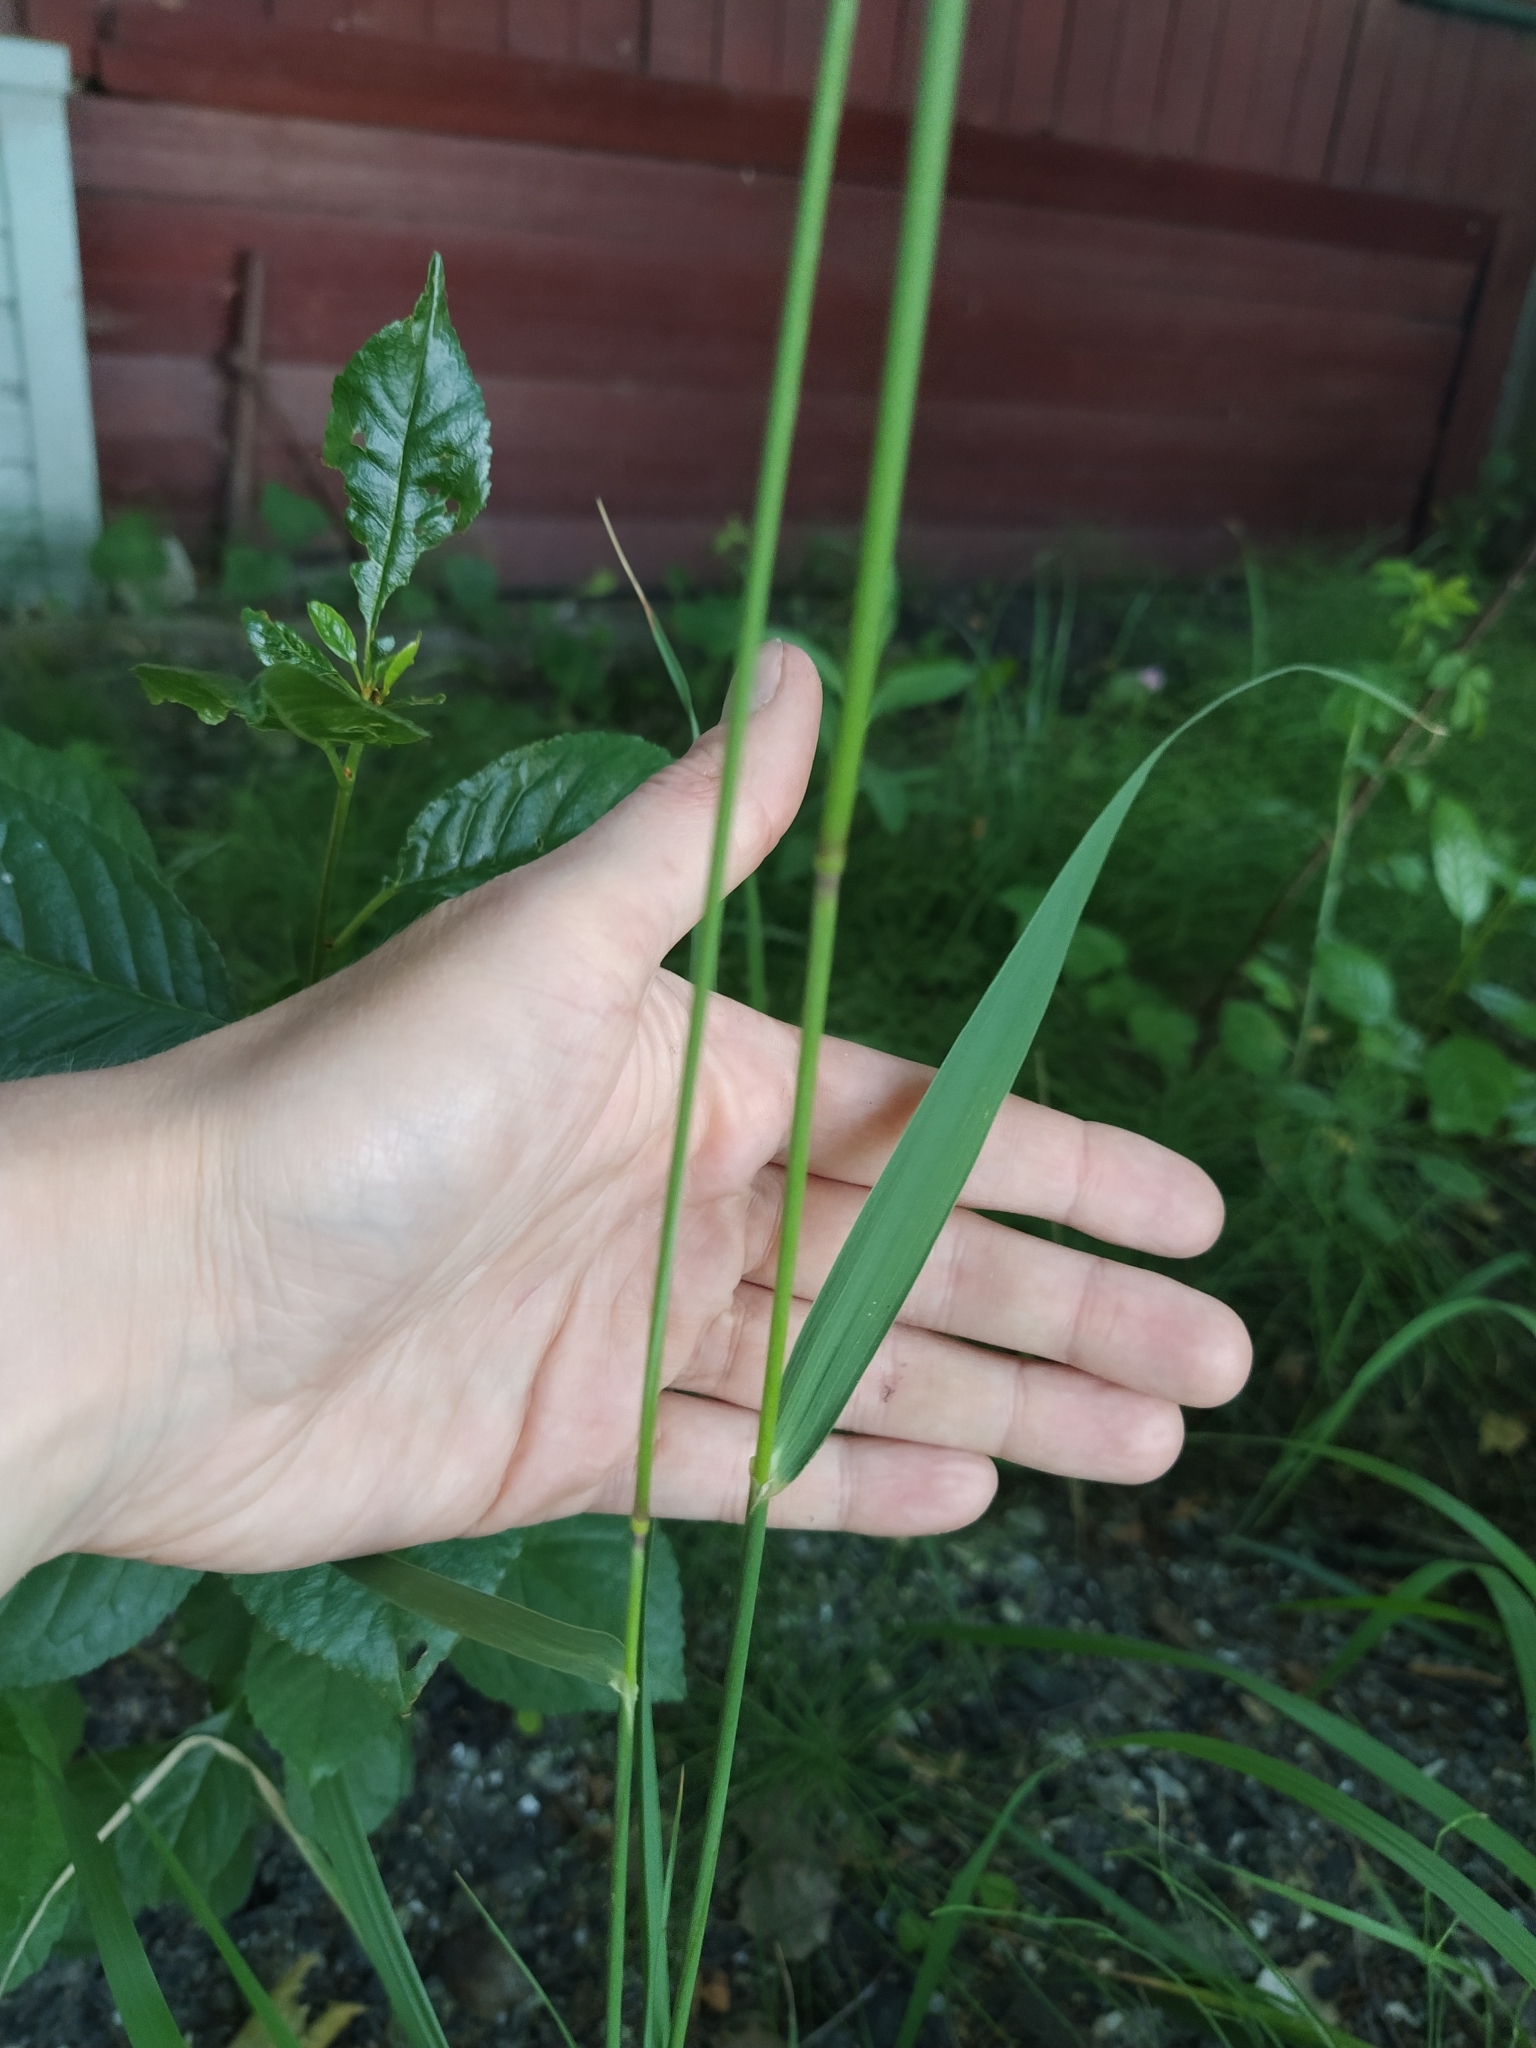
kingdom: Plantae
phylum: Tracheophyta
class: Liliopsida
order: Poales
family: Poaceae
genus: Calamagrostis
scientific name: Calamagrostis epigejos
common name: Wood small-reed
